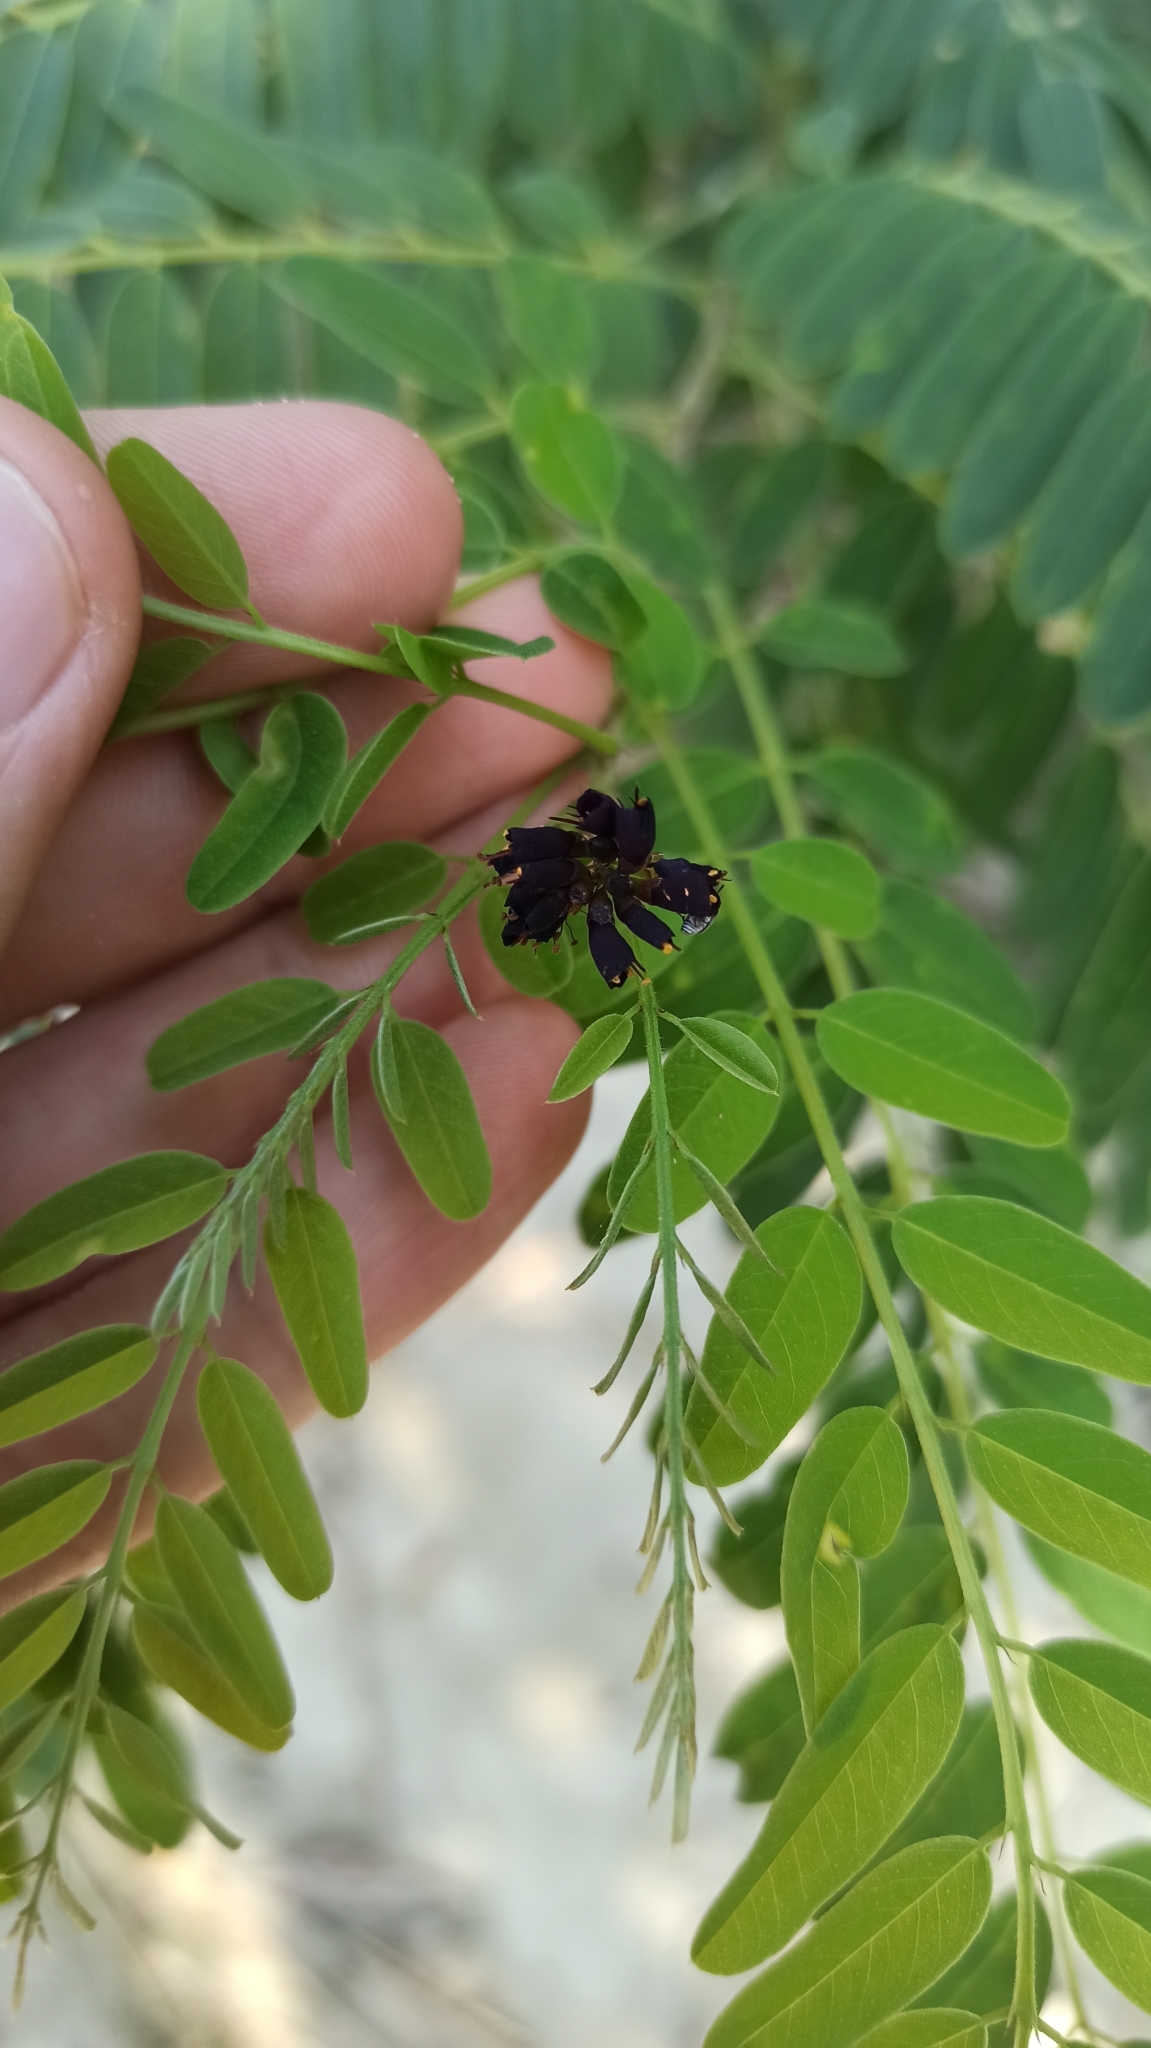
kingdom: Plantae
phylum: Tracheophyta
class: Magnoliopsida
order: Fabales
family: Fabaceae
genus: Amorpha
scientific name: Amorpha fruticosa
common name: False indigo
